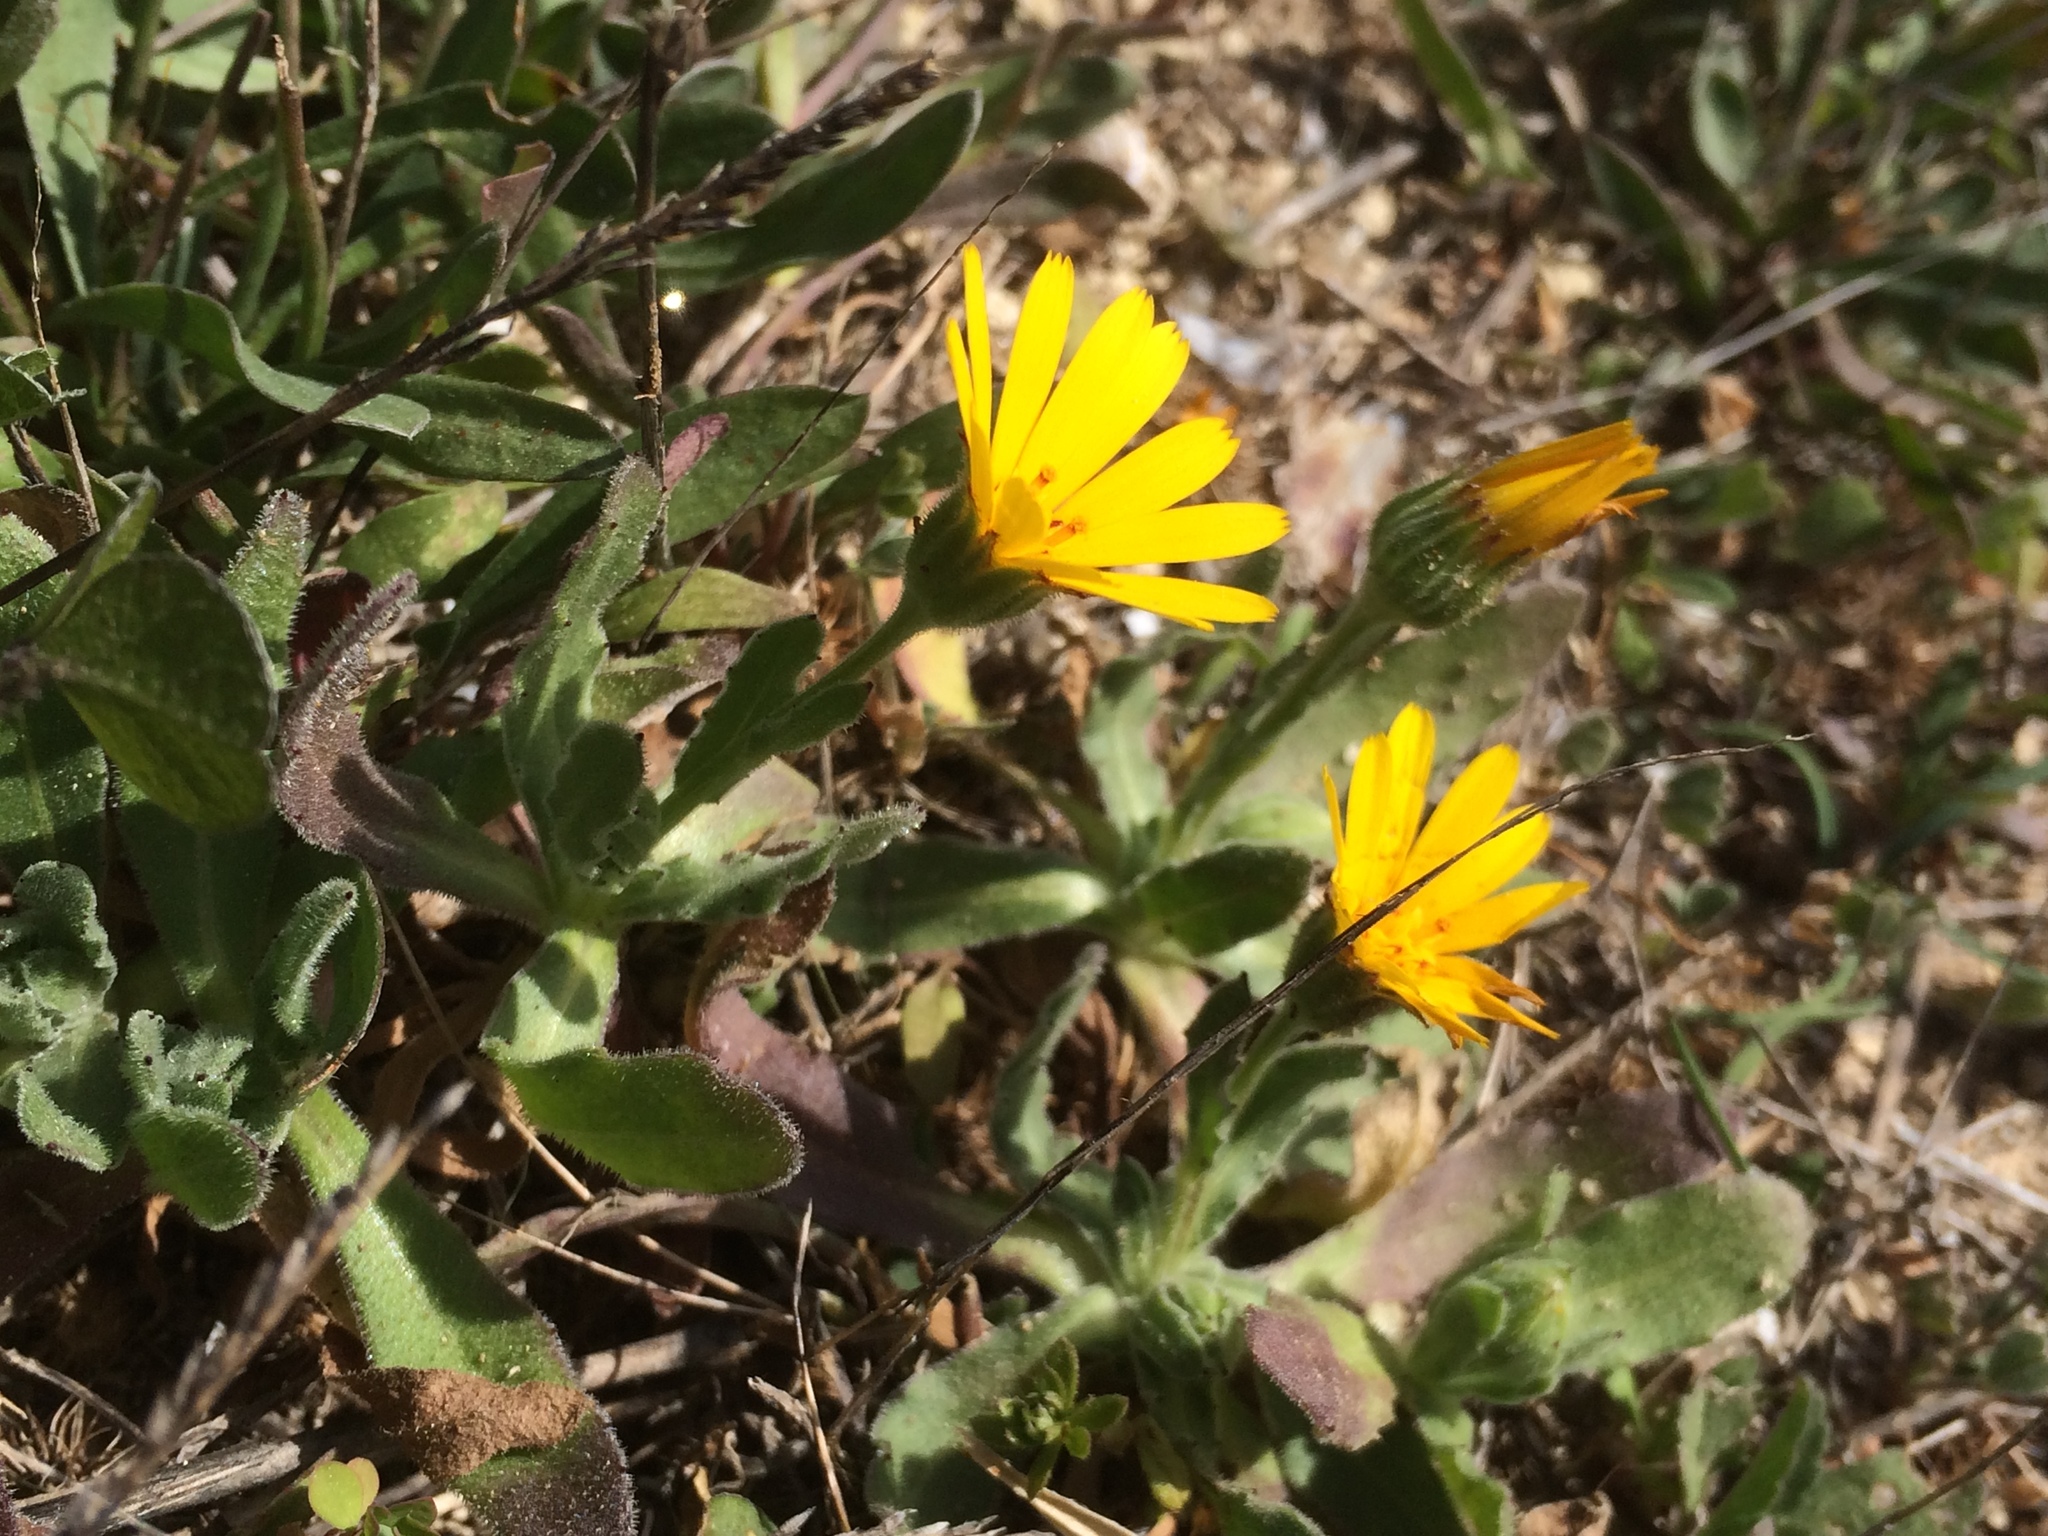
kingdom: Plantae
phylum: Tracheophyta
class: Magnoliopsida
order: Asterales
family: Asteraceae
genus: Calendula
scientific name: Calendula arvensis
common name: Field marigold
